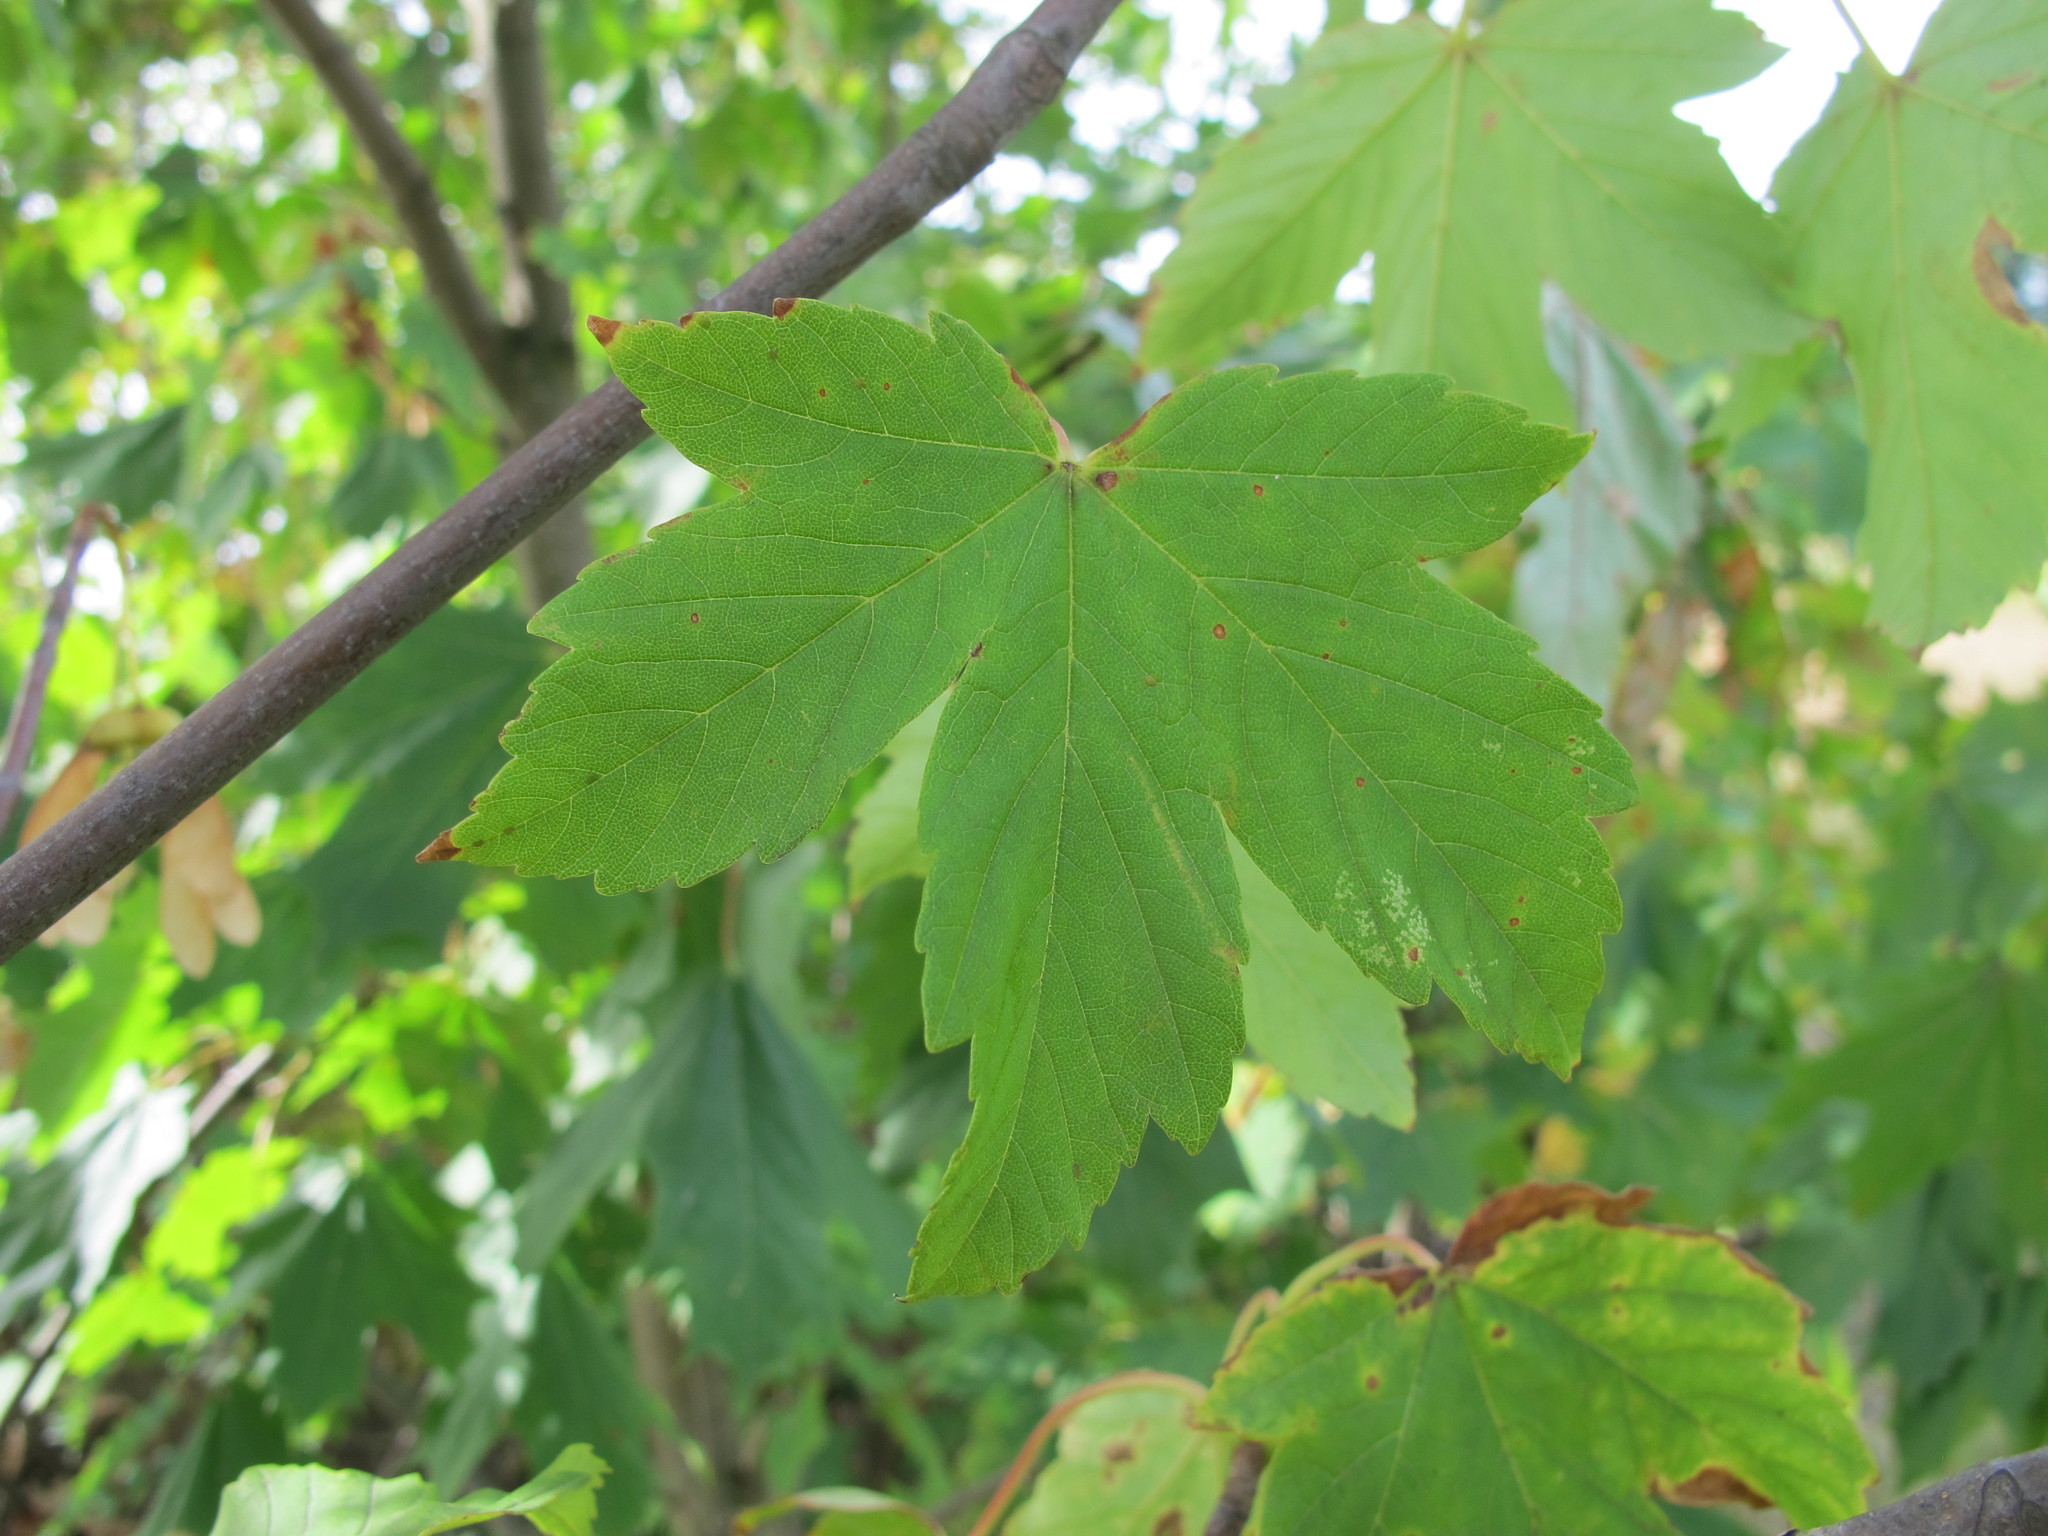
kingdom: Plantae
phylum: Tracheophyta
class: Magnoliopsida
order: Sapindales
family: Sapindaceae
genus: Acer
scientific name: Acer pseudoplatanus
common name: Sycamore
